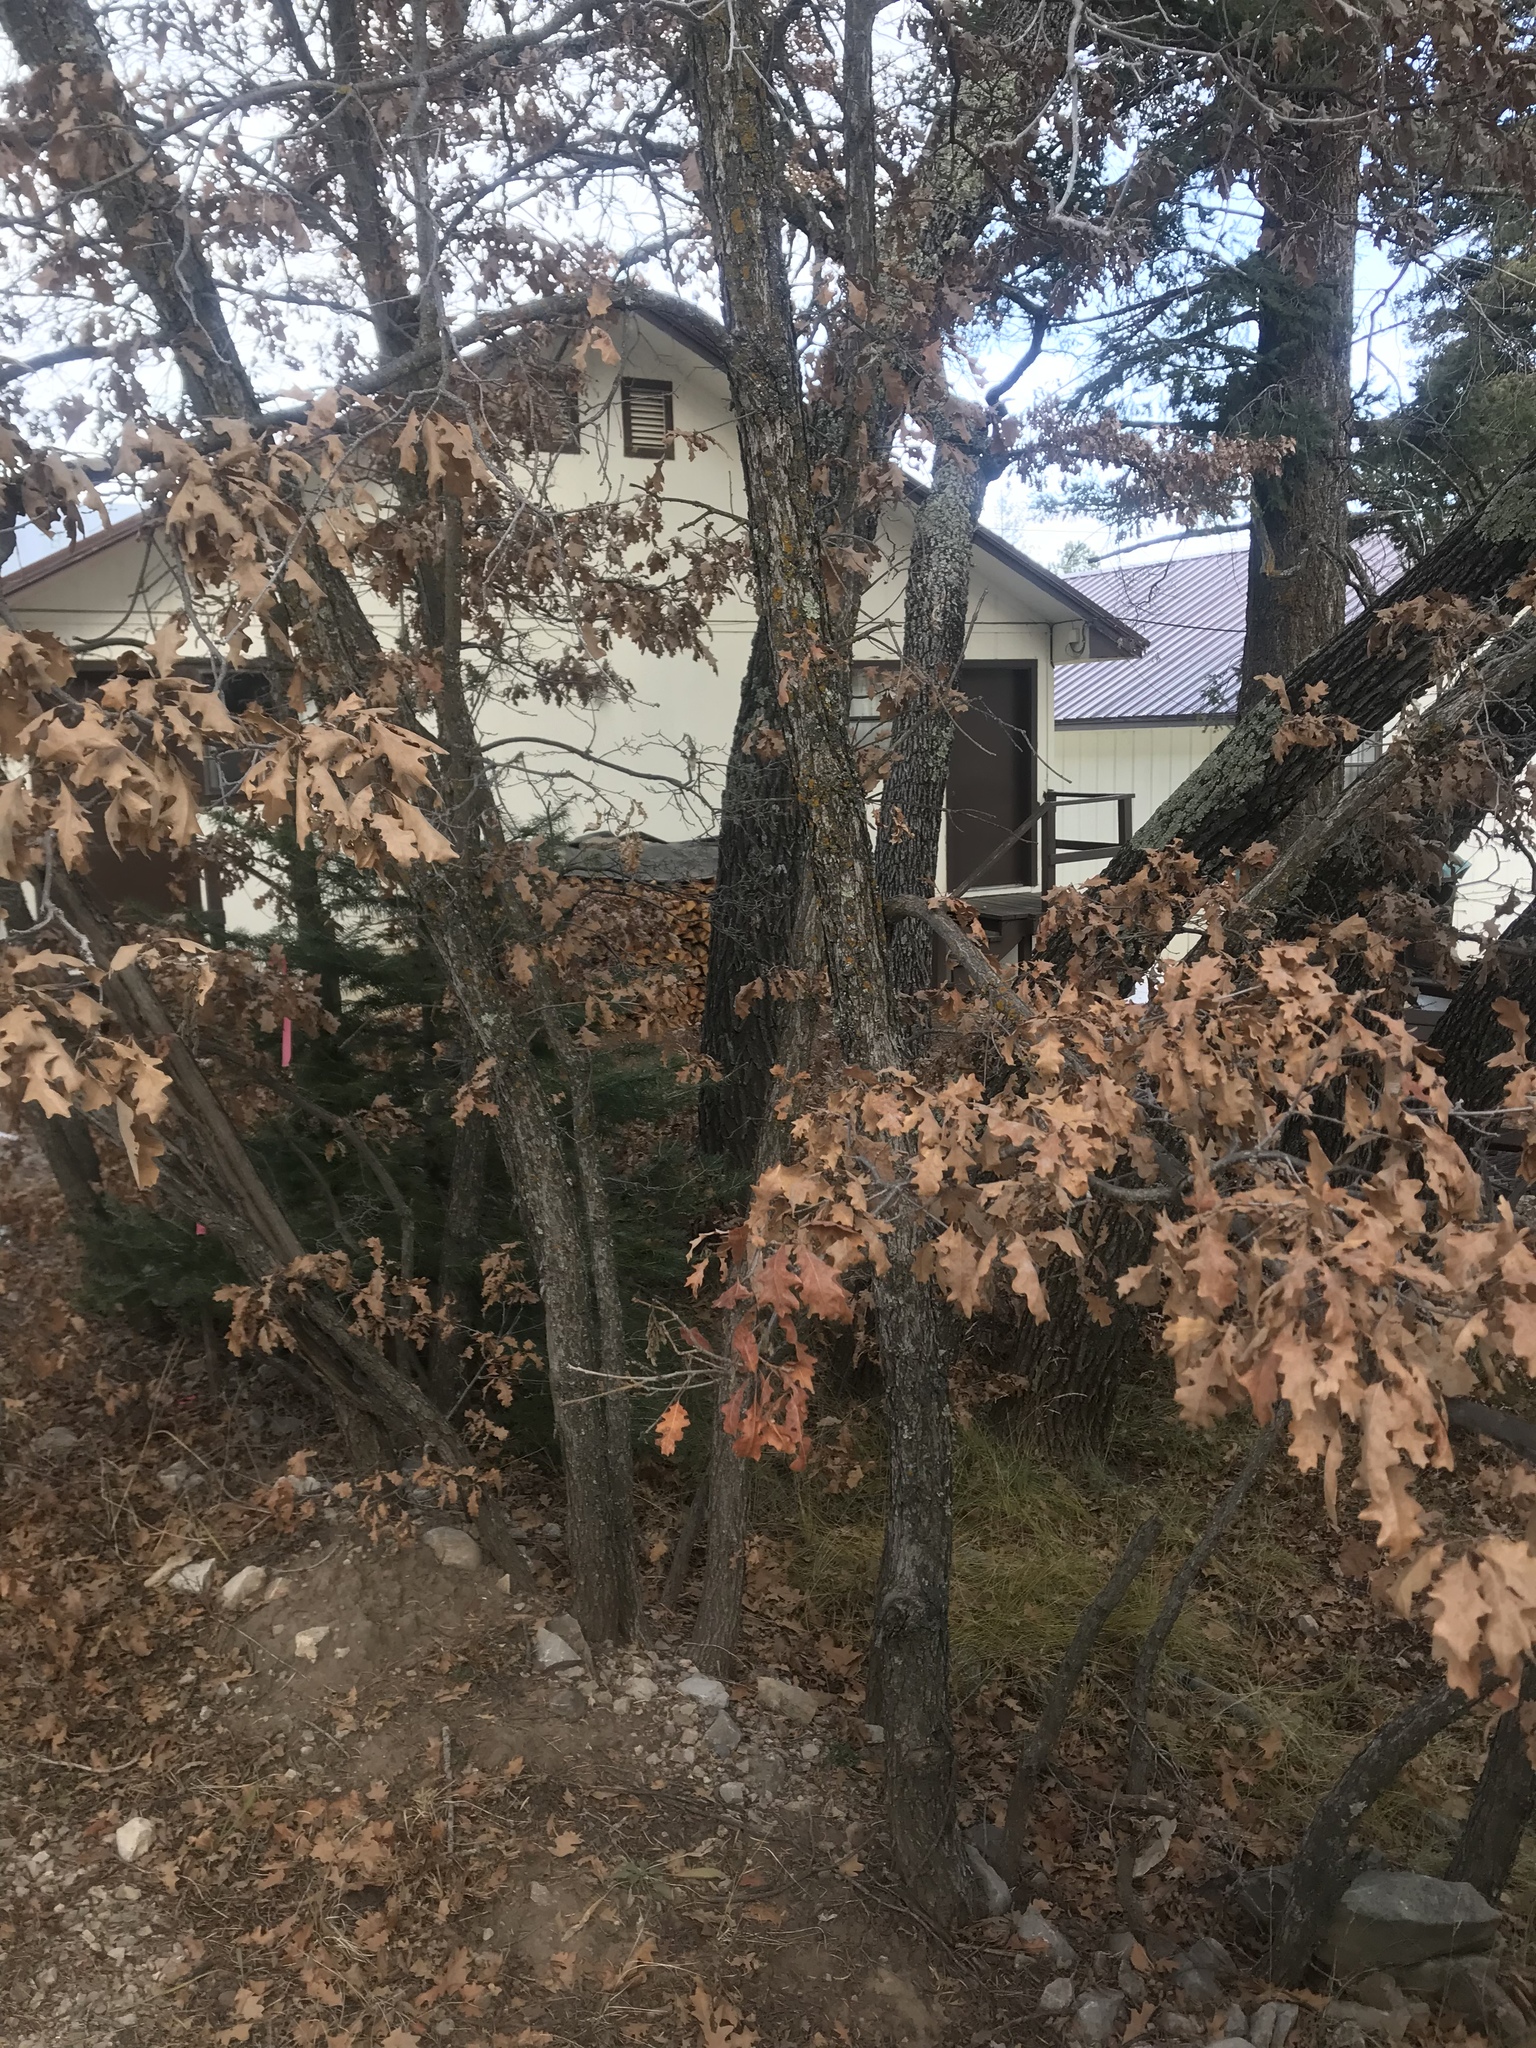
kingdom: Plantae
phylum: Tracheophyta
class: Magnoliopsida
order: Fagales
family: Fagaceae
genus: Quercus
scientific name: Quercus gambelii
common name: Gambel oak
